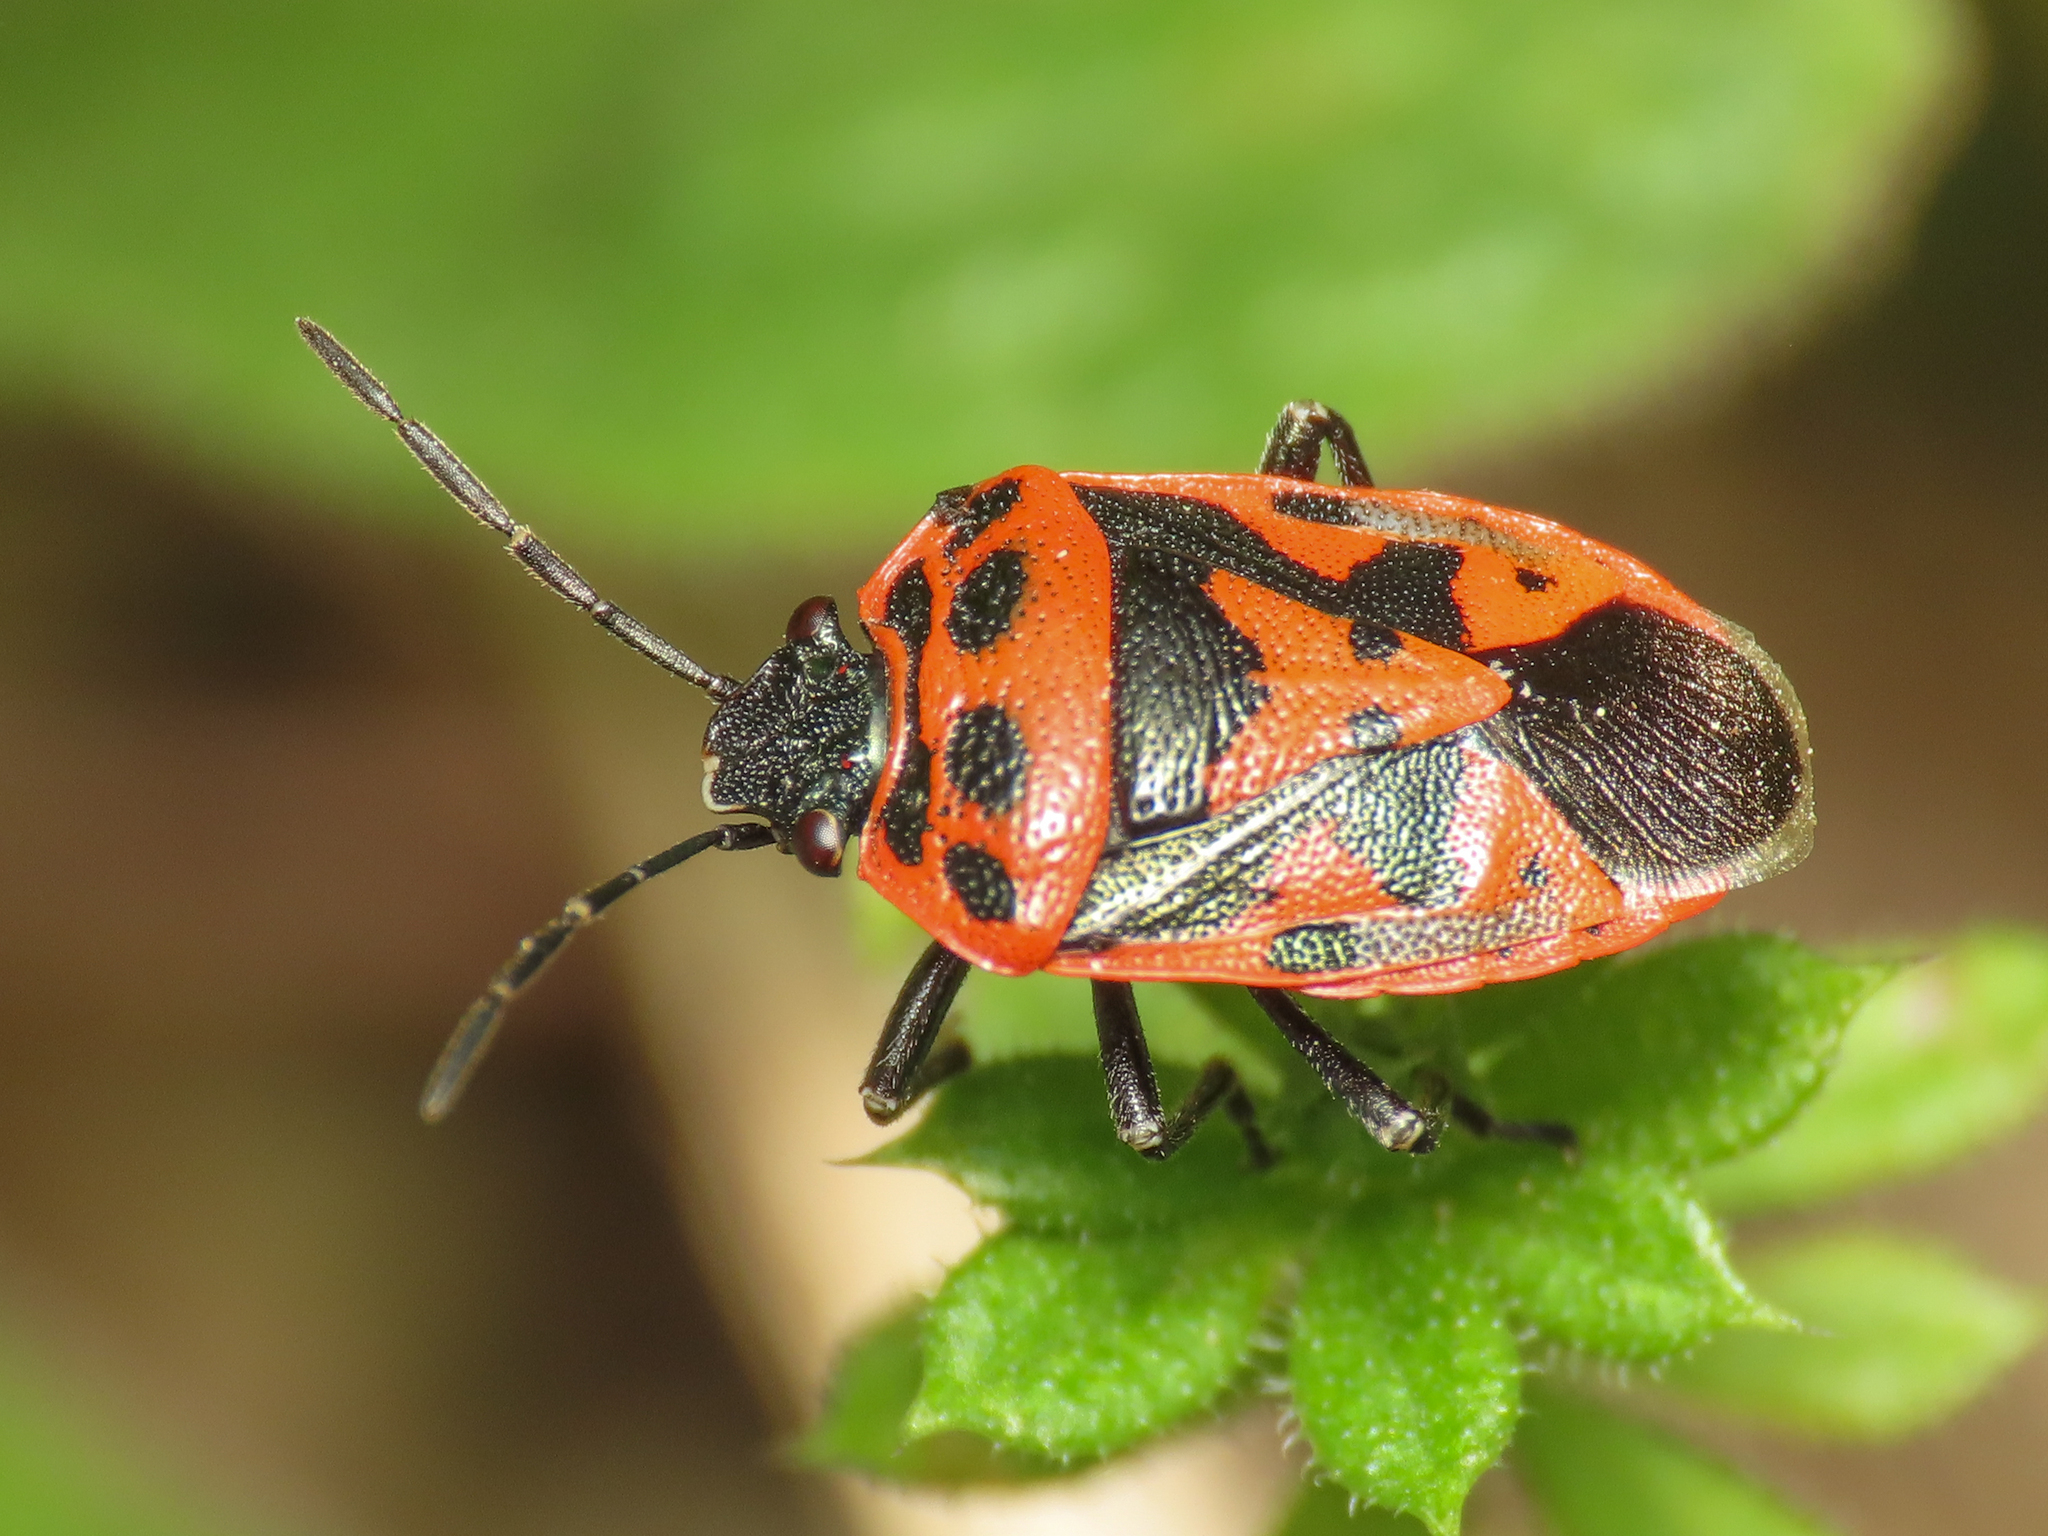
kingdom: Animalia
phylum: Arthropoda
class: Insecta
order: Hemiptera
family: Pentatomidae
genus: Eurydema
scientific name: Eurydema ornata
